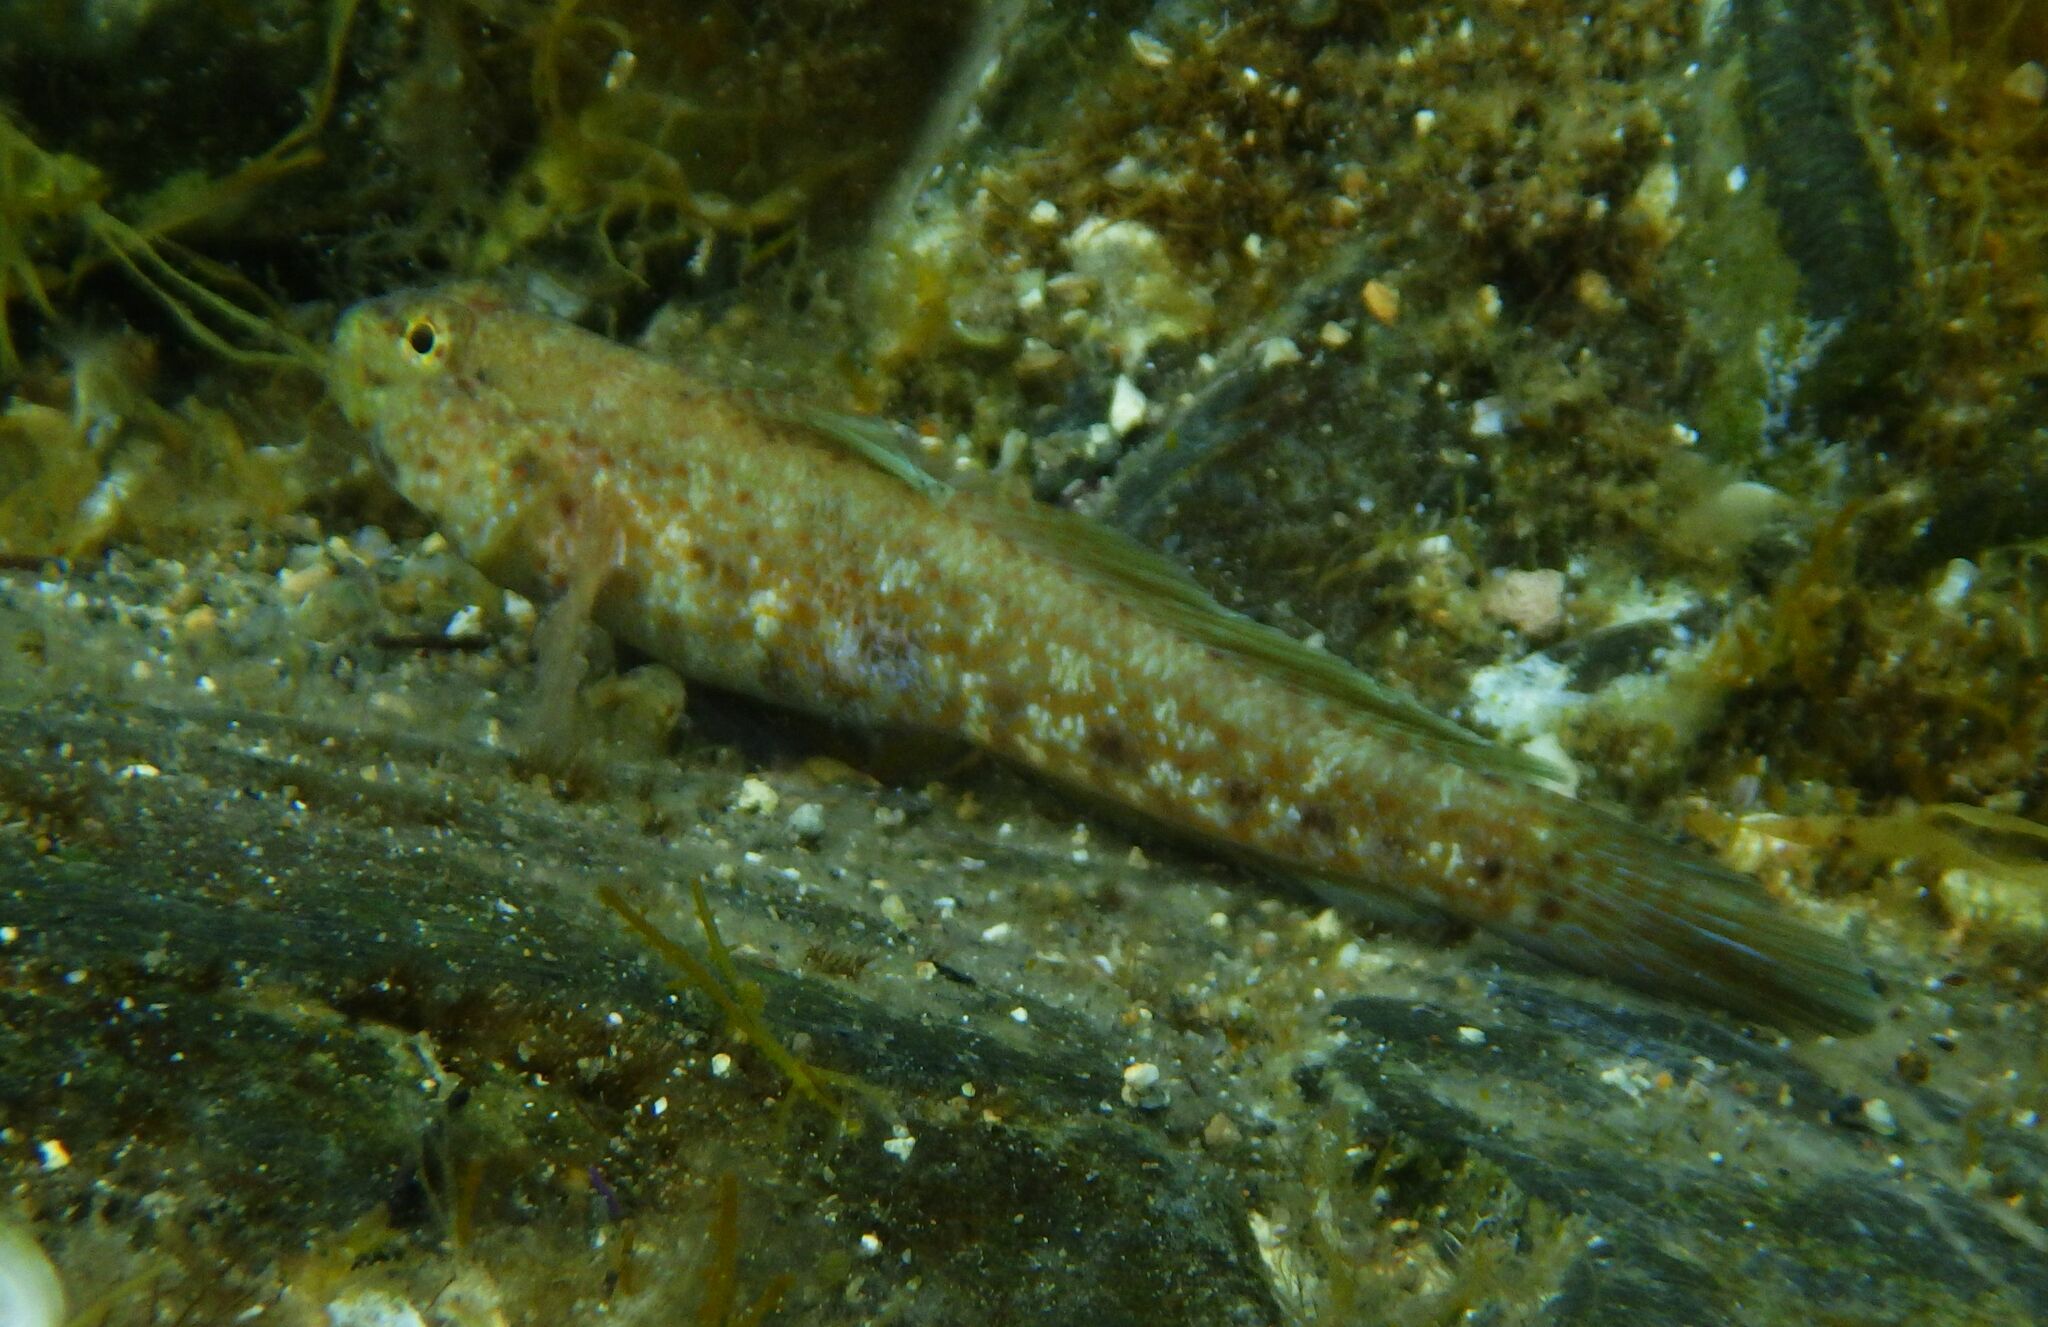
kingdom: Animalia
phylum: Chordata
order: Perciformes
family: Gobiidae
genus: Gobius
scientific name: Gobius incognitus
